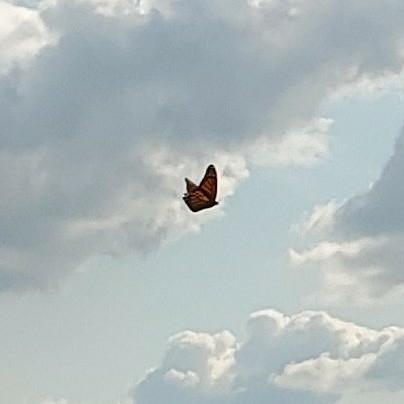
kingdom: Animalia
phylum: Arthropoda
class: Insecta
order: Lepidoptera
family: Nymphalidae
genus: Danaus
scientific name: Danaus plexippus
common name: Monarch
